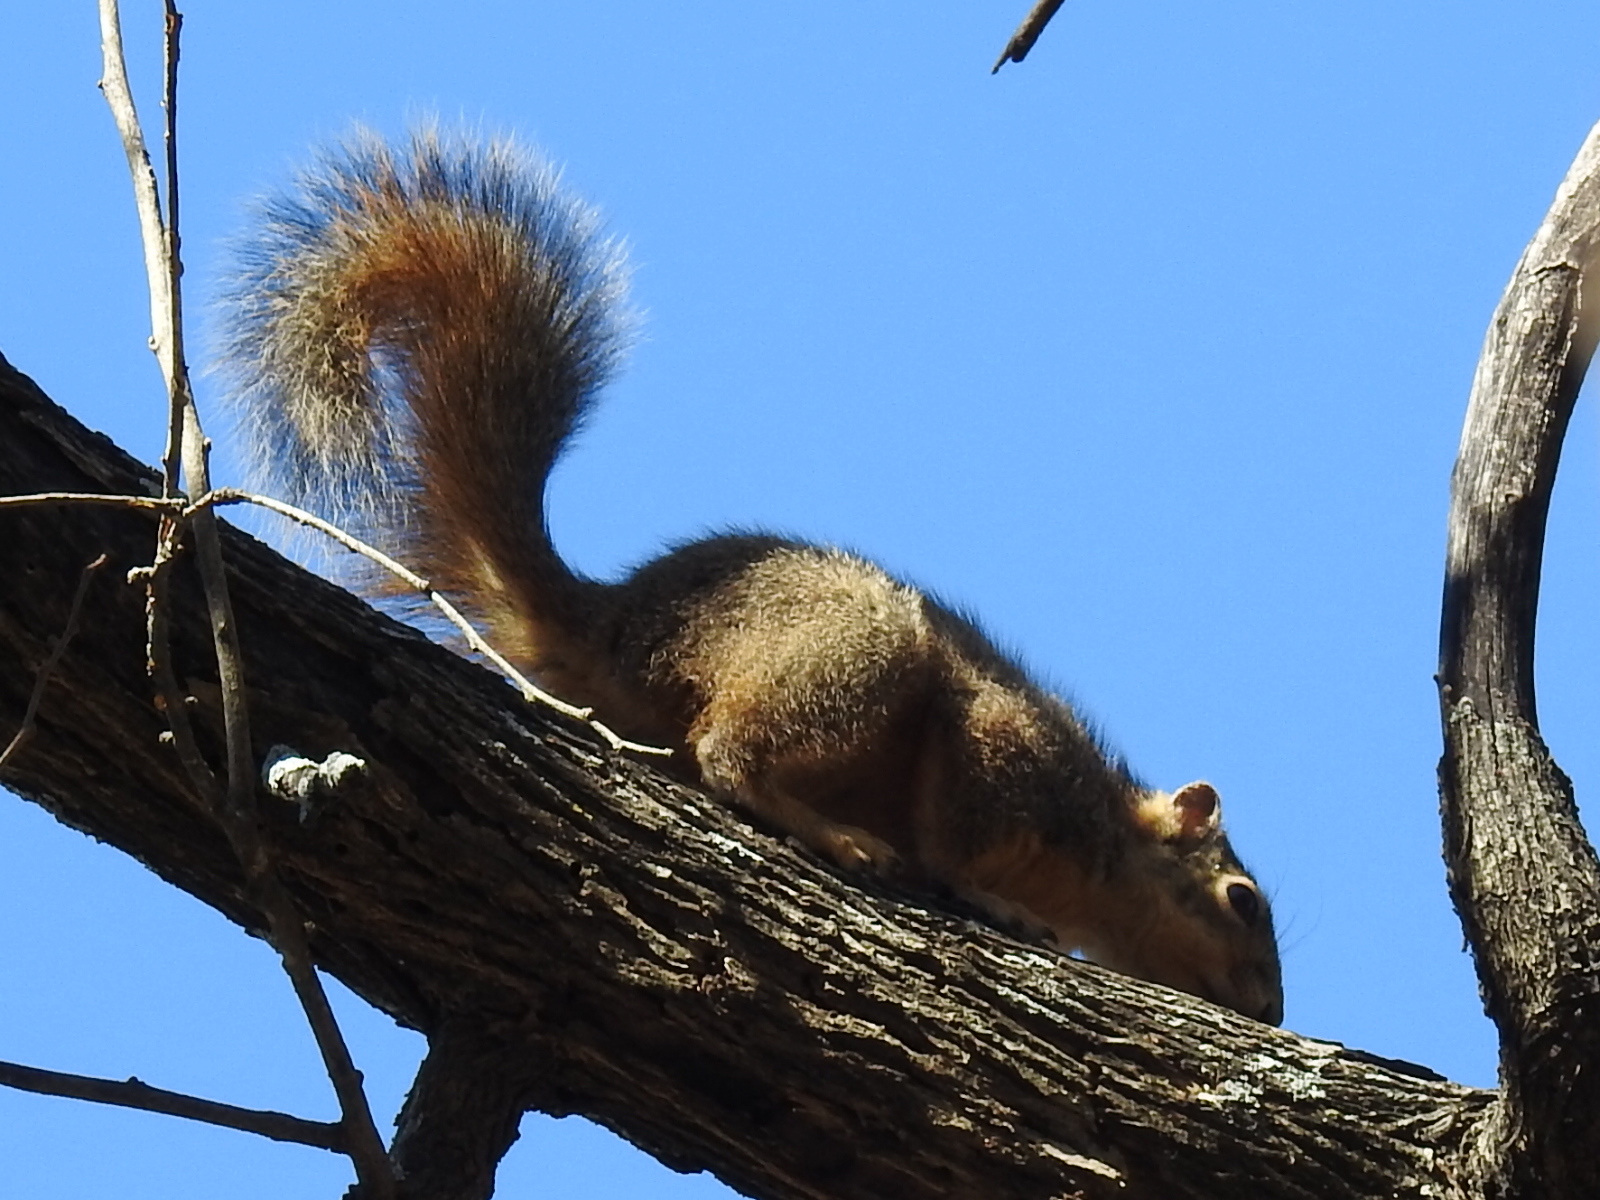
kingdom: Animalia
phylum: Chordata
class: Mammalia
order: Rodentia
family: Sciuridae
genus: Sciurus
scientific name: Sciurus niger
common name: Fox squirrel
